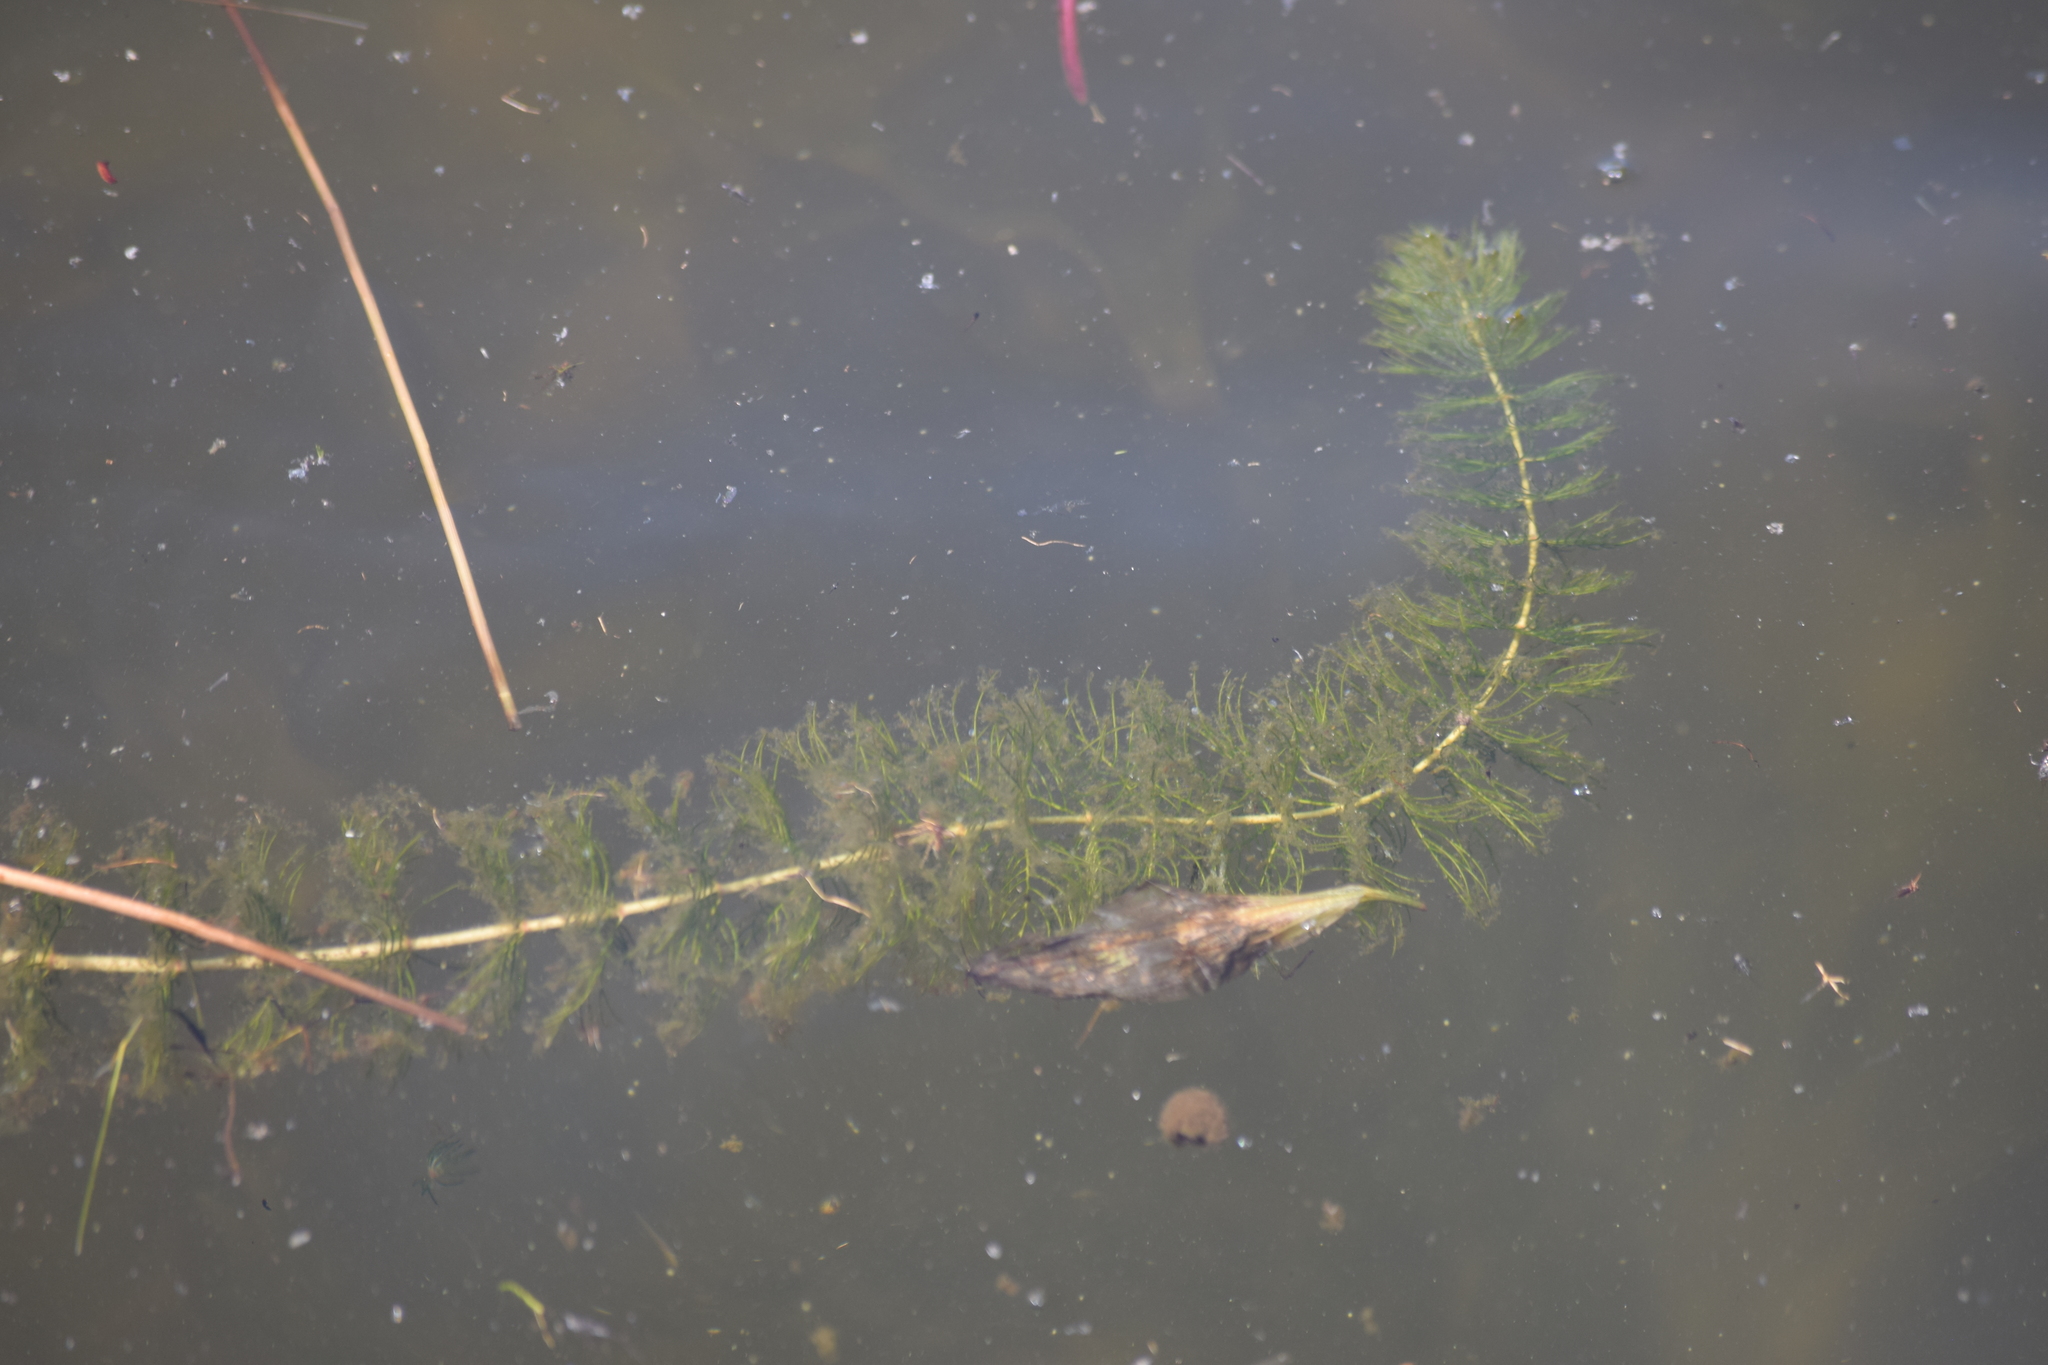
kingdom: Plantae
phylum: Tracheophyta
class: Magnoliopsida
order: Saxifragales
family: Haloragaceae
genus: Myriophyllum
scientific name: Myriophyllum sibiricum
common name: Siberian water-milfoil
